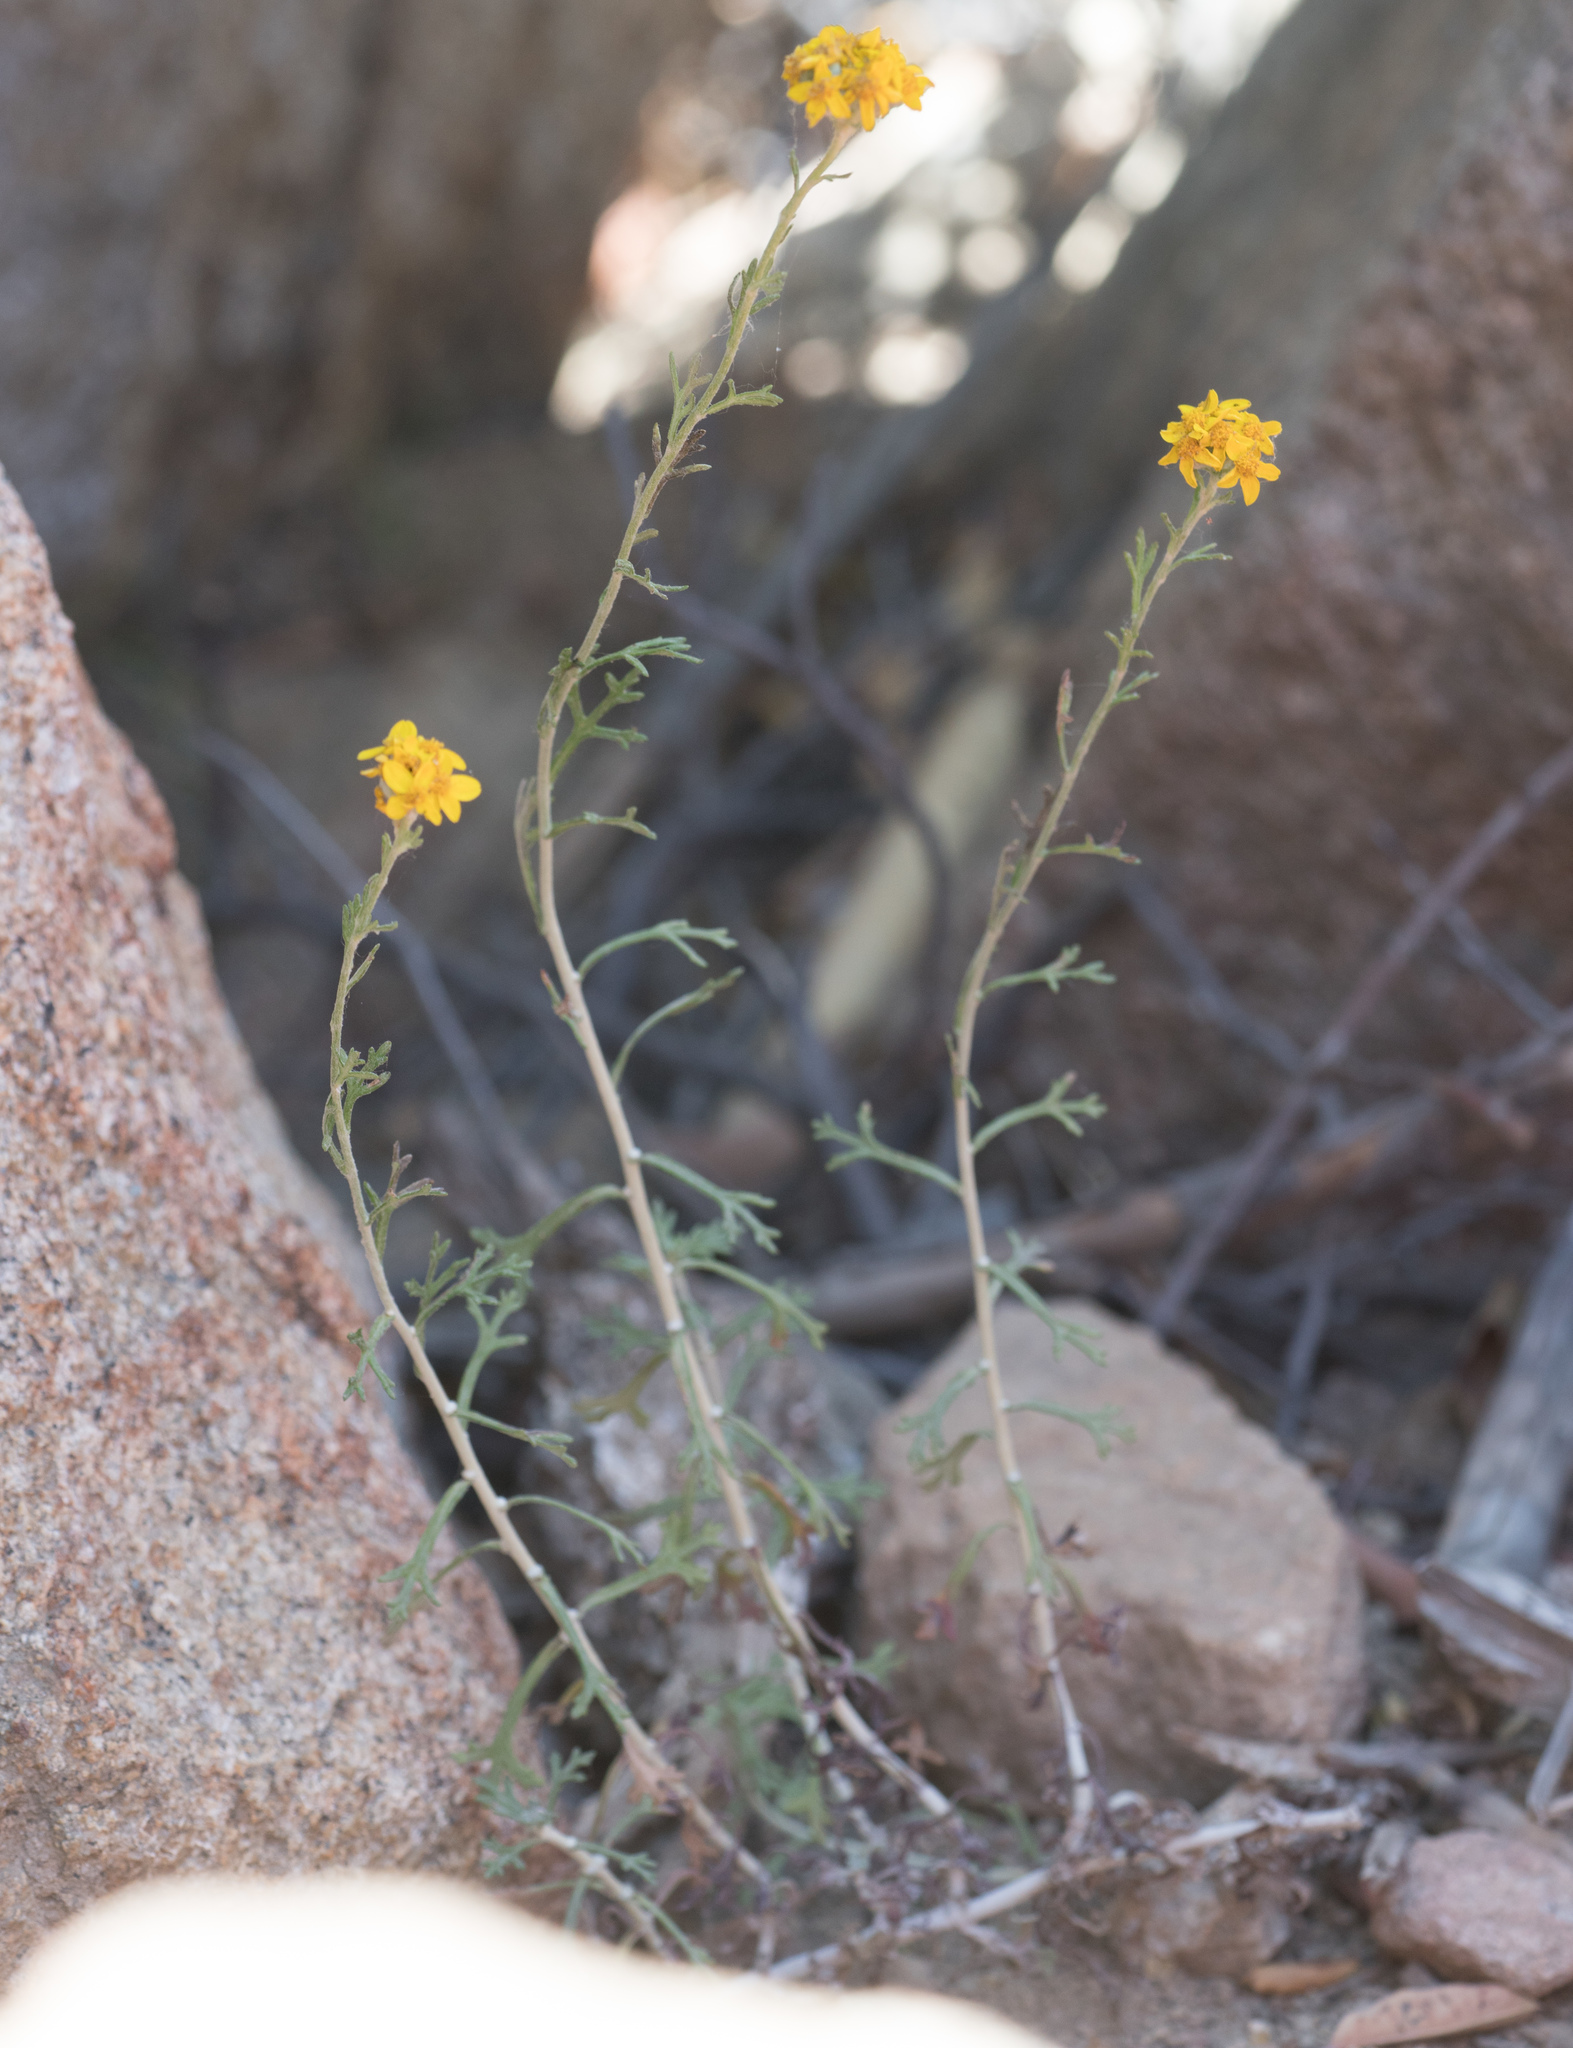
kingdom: Plantae
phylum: Tracheophyta
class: Magnoliopsida
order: Asterales
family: Asteraceae
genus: Eriophyllum
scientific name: Eriophyllum confertiflorum
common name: Golden-yarrow
